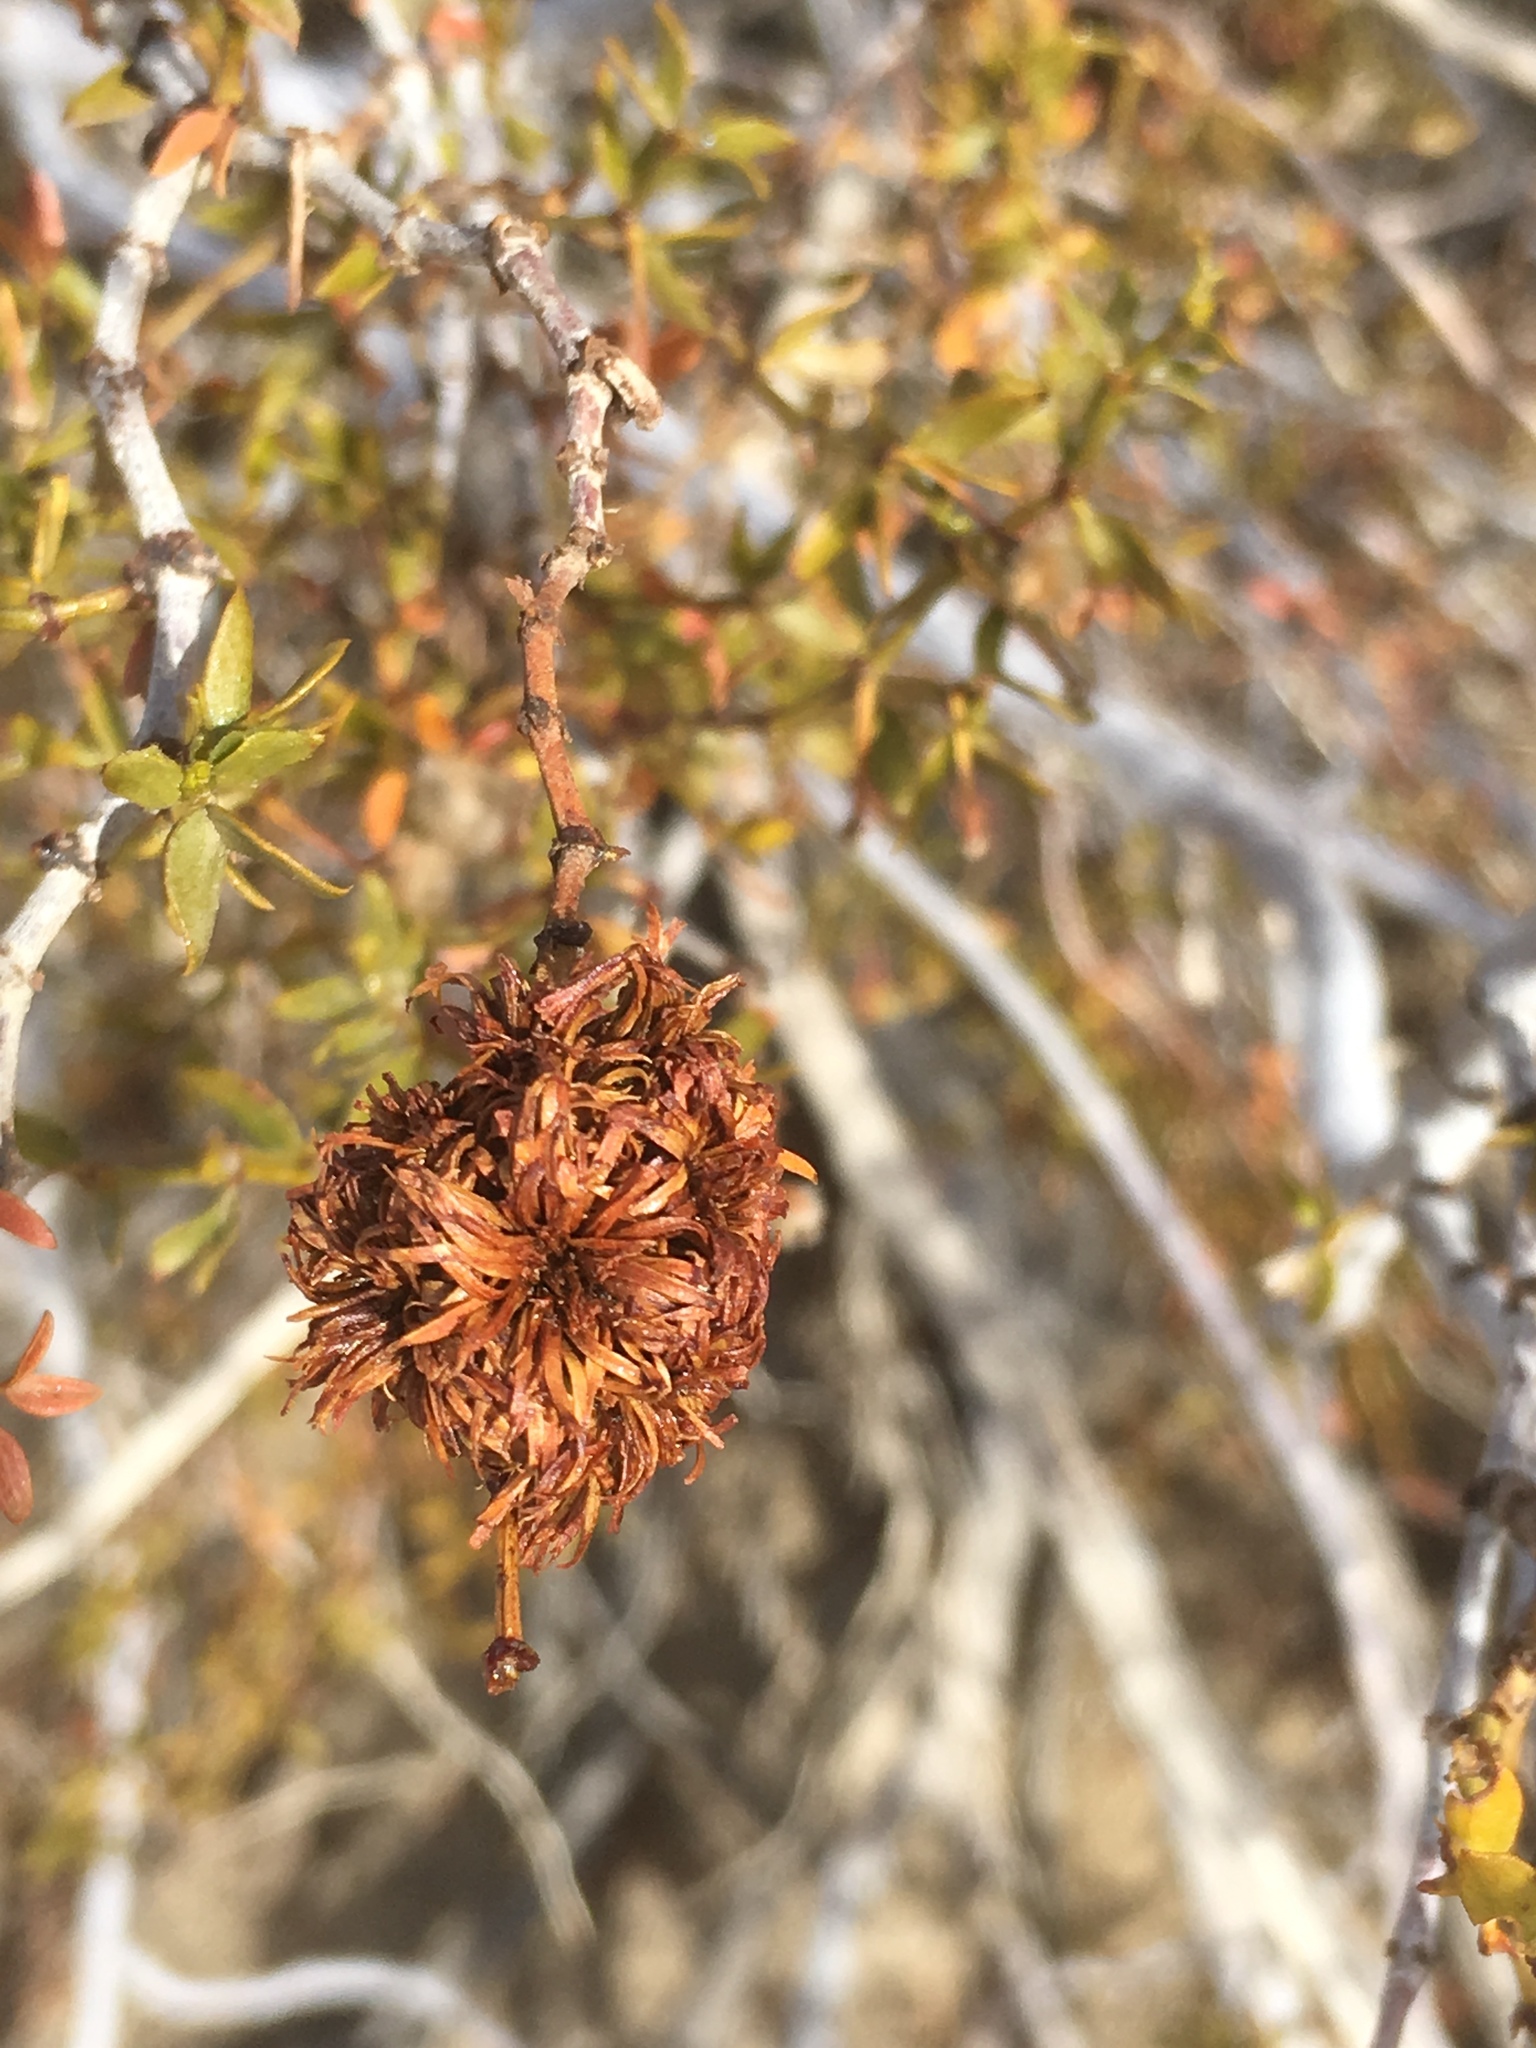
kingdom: Plantae
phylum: Tracheophyta
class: Magnoliopsida
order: Zygophyllales
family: Zygophyllaceae
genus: Larrea
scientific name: Larrea tridentata
